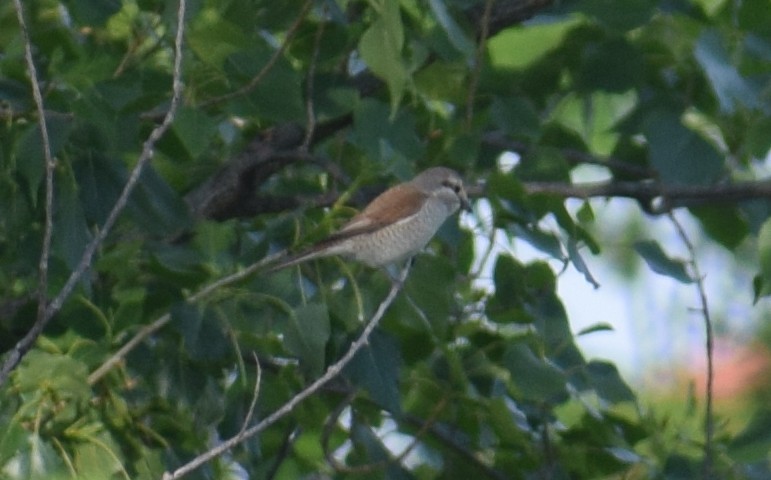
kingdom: Animalia
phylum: Chordata
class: Aves
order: Passeriformes
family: Laniidae
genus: Lanius
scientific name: Lanius collurio
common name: Red-backed shrike
